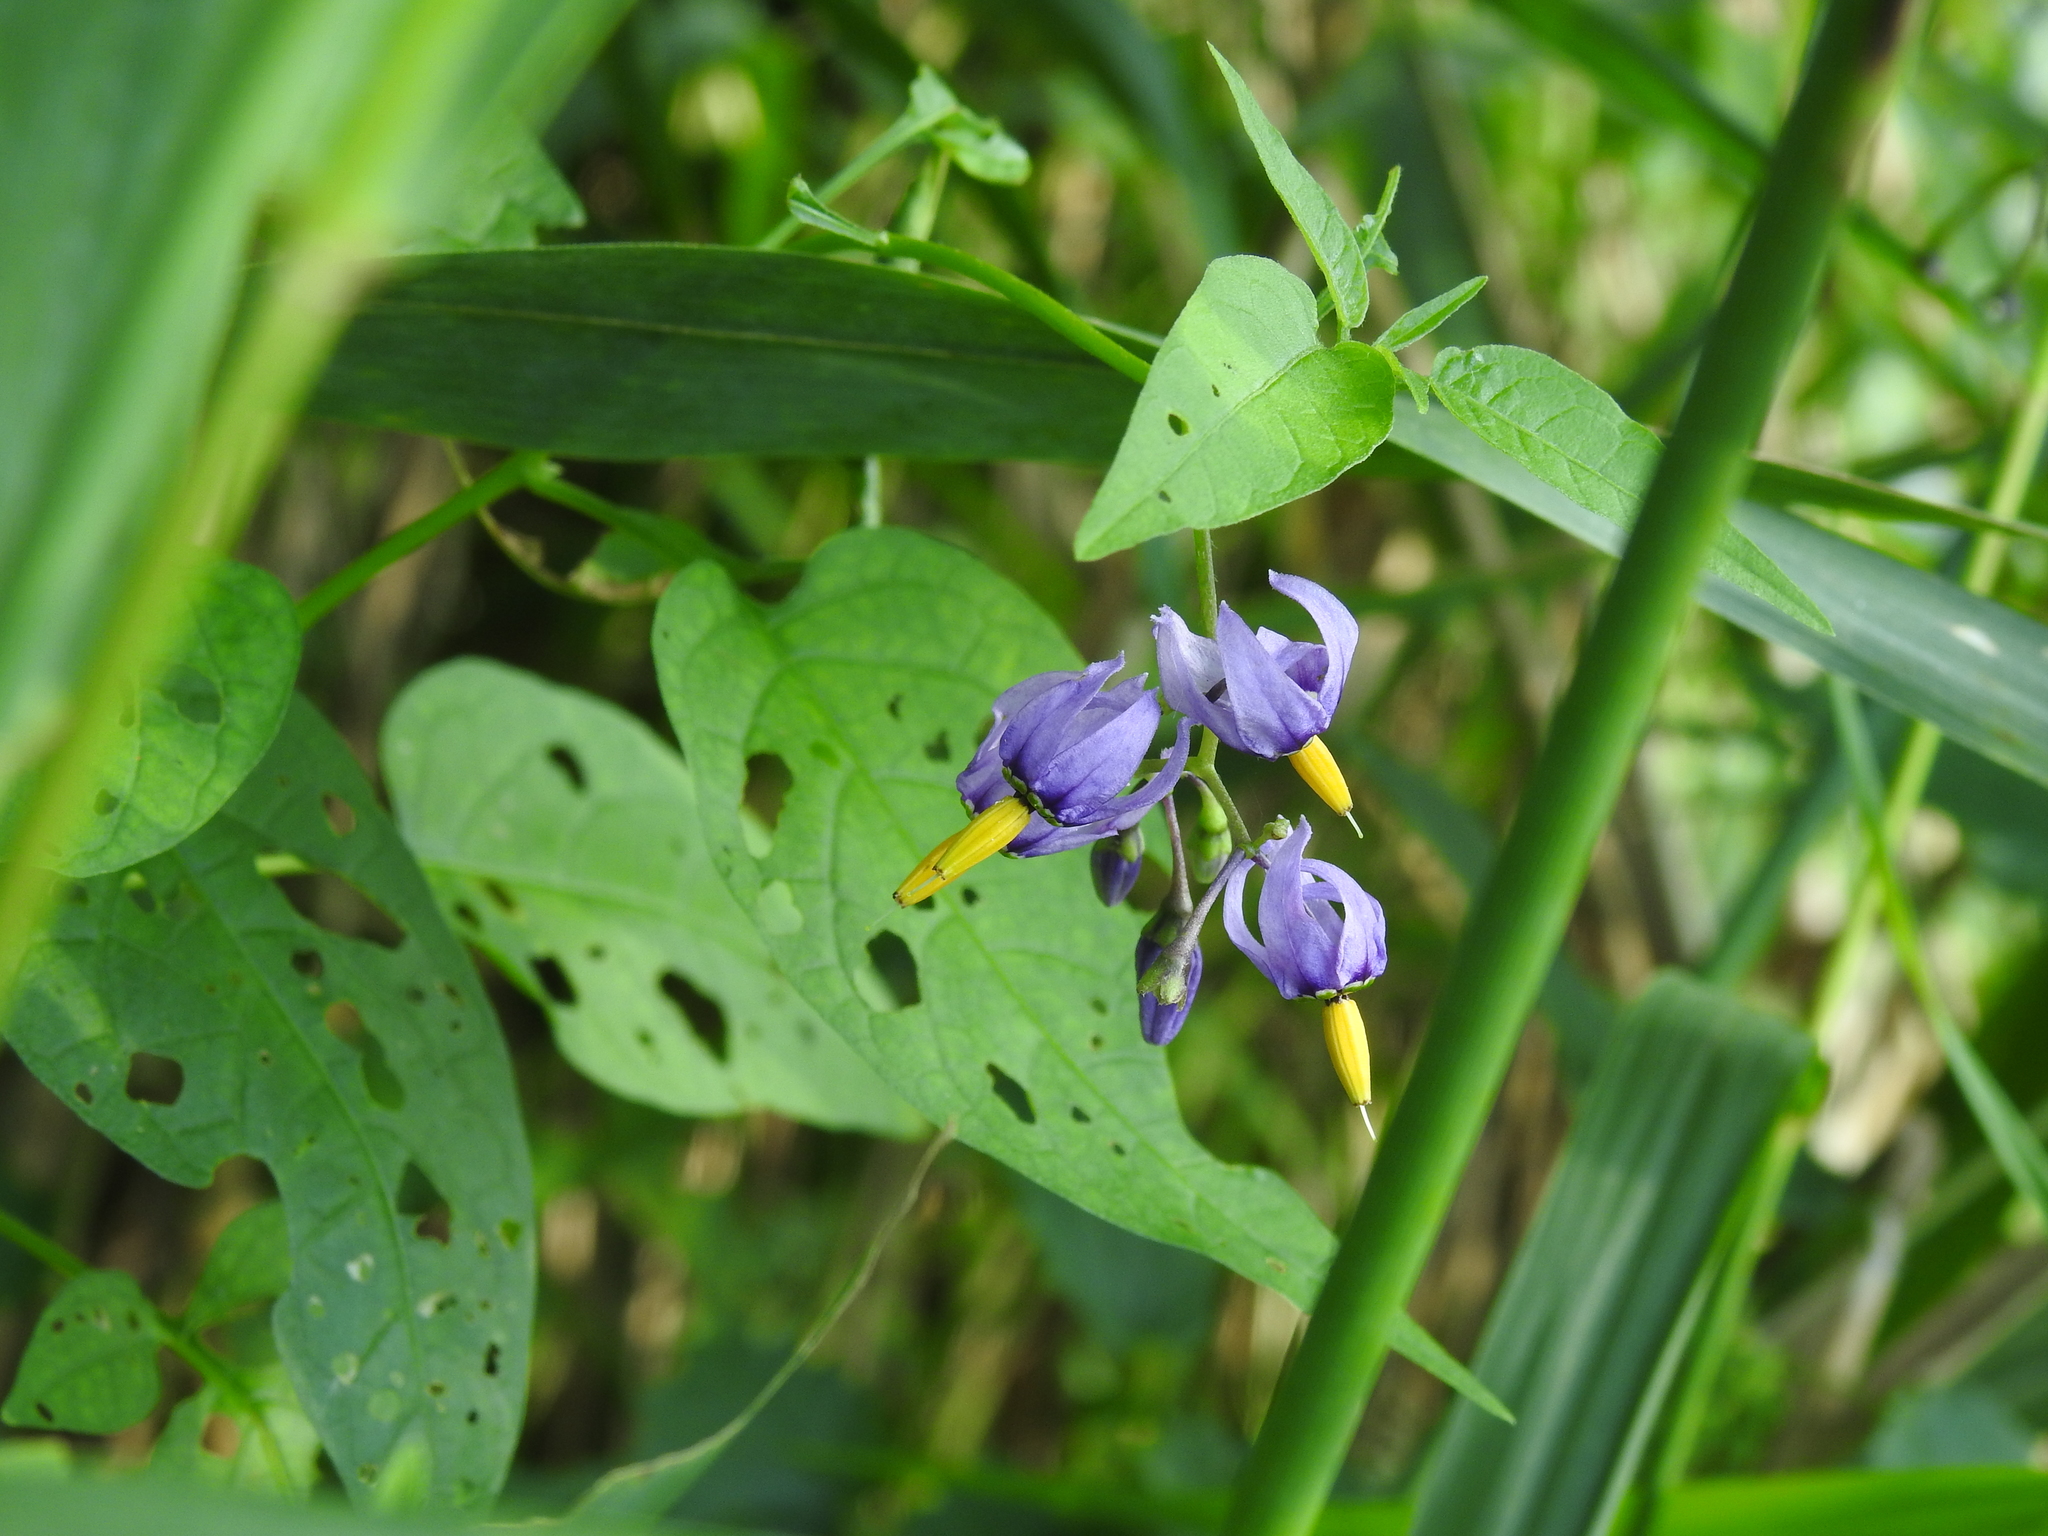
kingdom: Plantae
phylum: Tracheophyta
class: Magnoliopsida
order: Solanales
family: Solanaceae
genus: Solanum
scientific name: Solanum dulcamara
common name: Climbing nightshade
